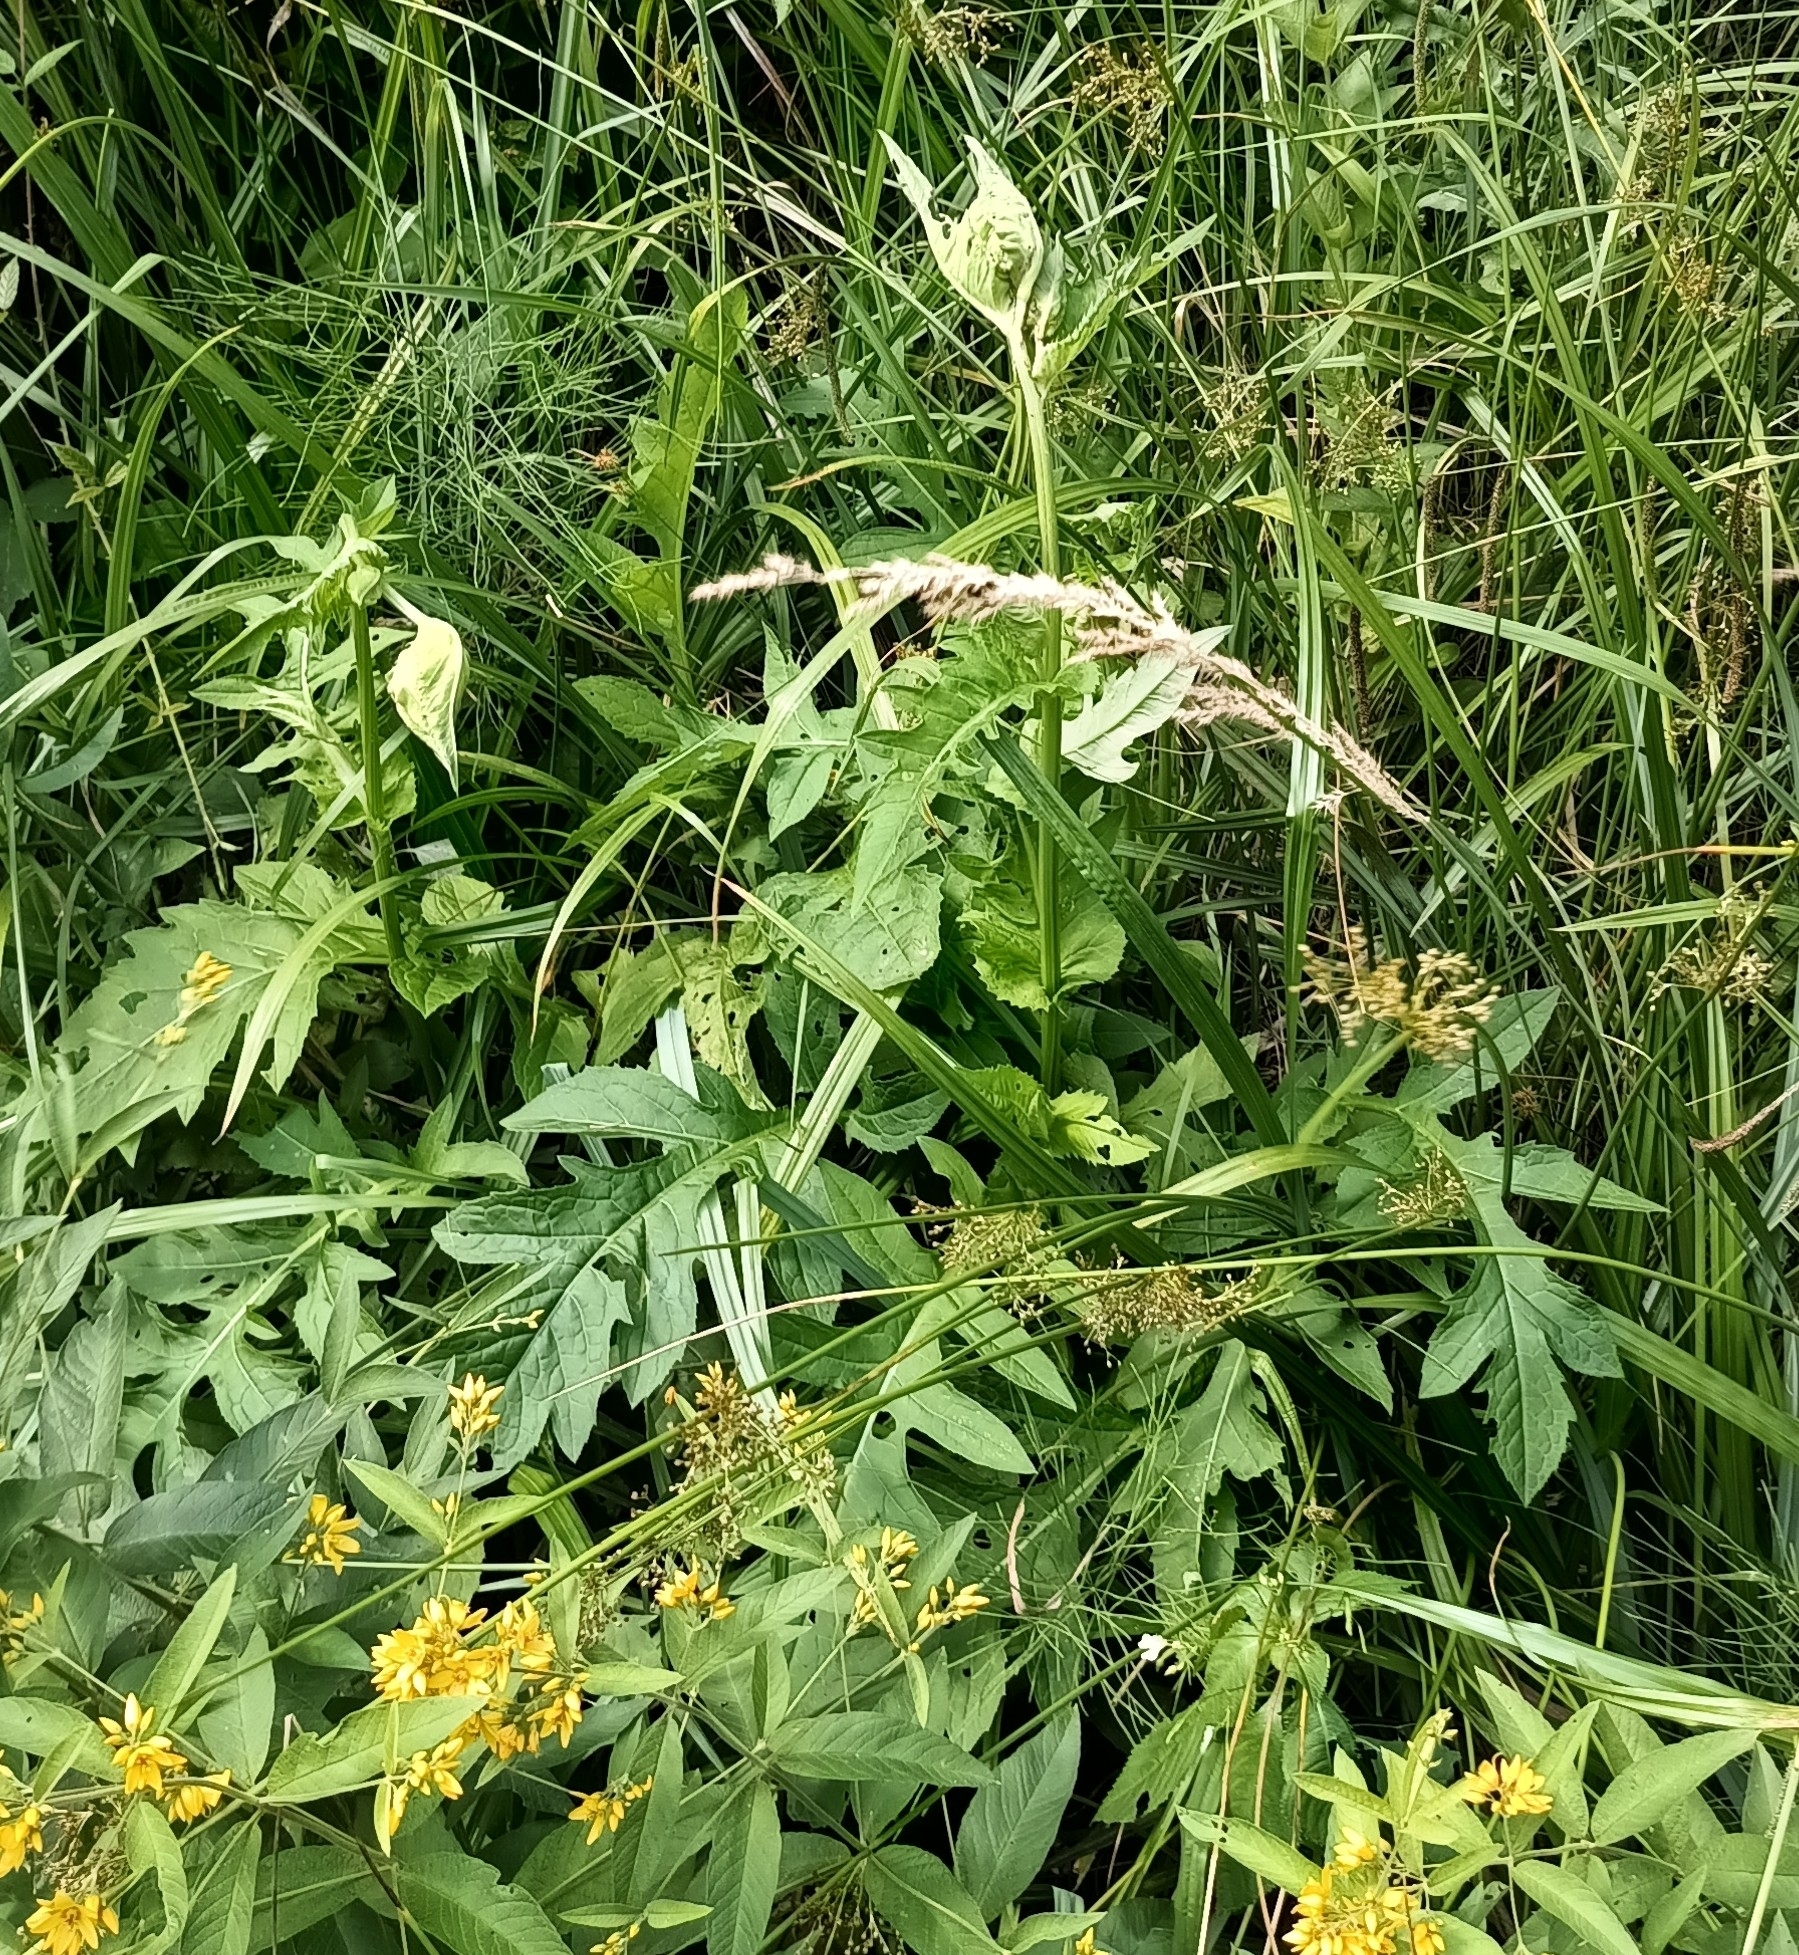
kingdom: Plantae
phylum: Tracheophyta
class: Magnoliopsida
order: Asterales
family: Asteraceae
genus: Cirsium
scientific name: Cirsium oleraceum
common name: Cabbage thistle
